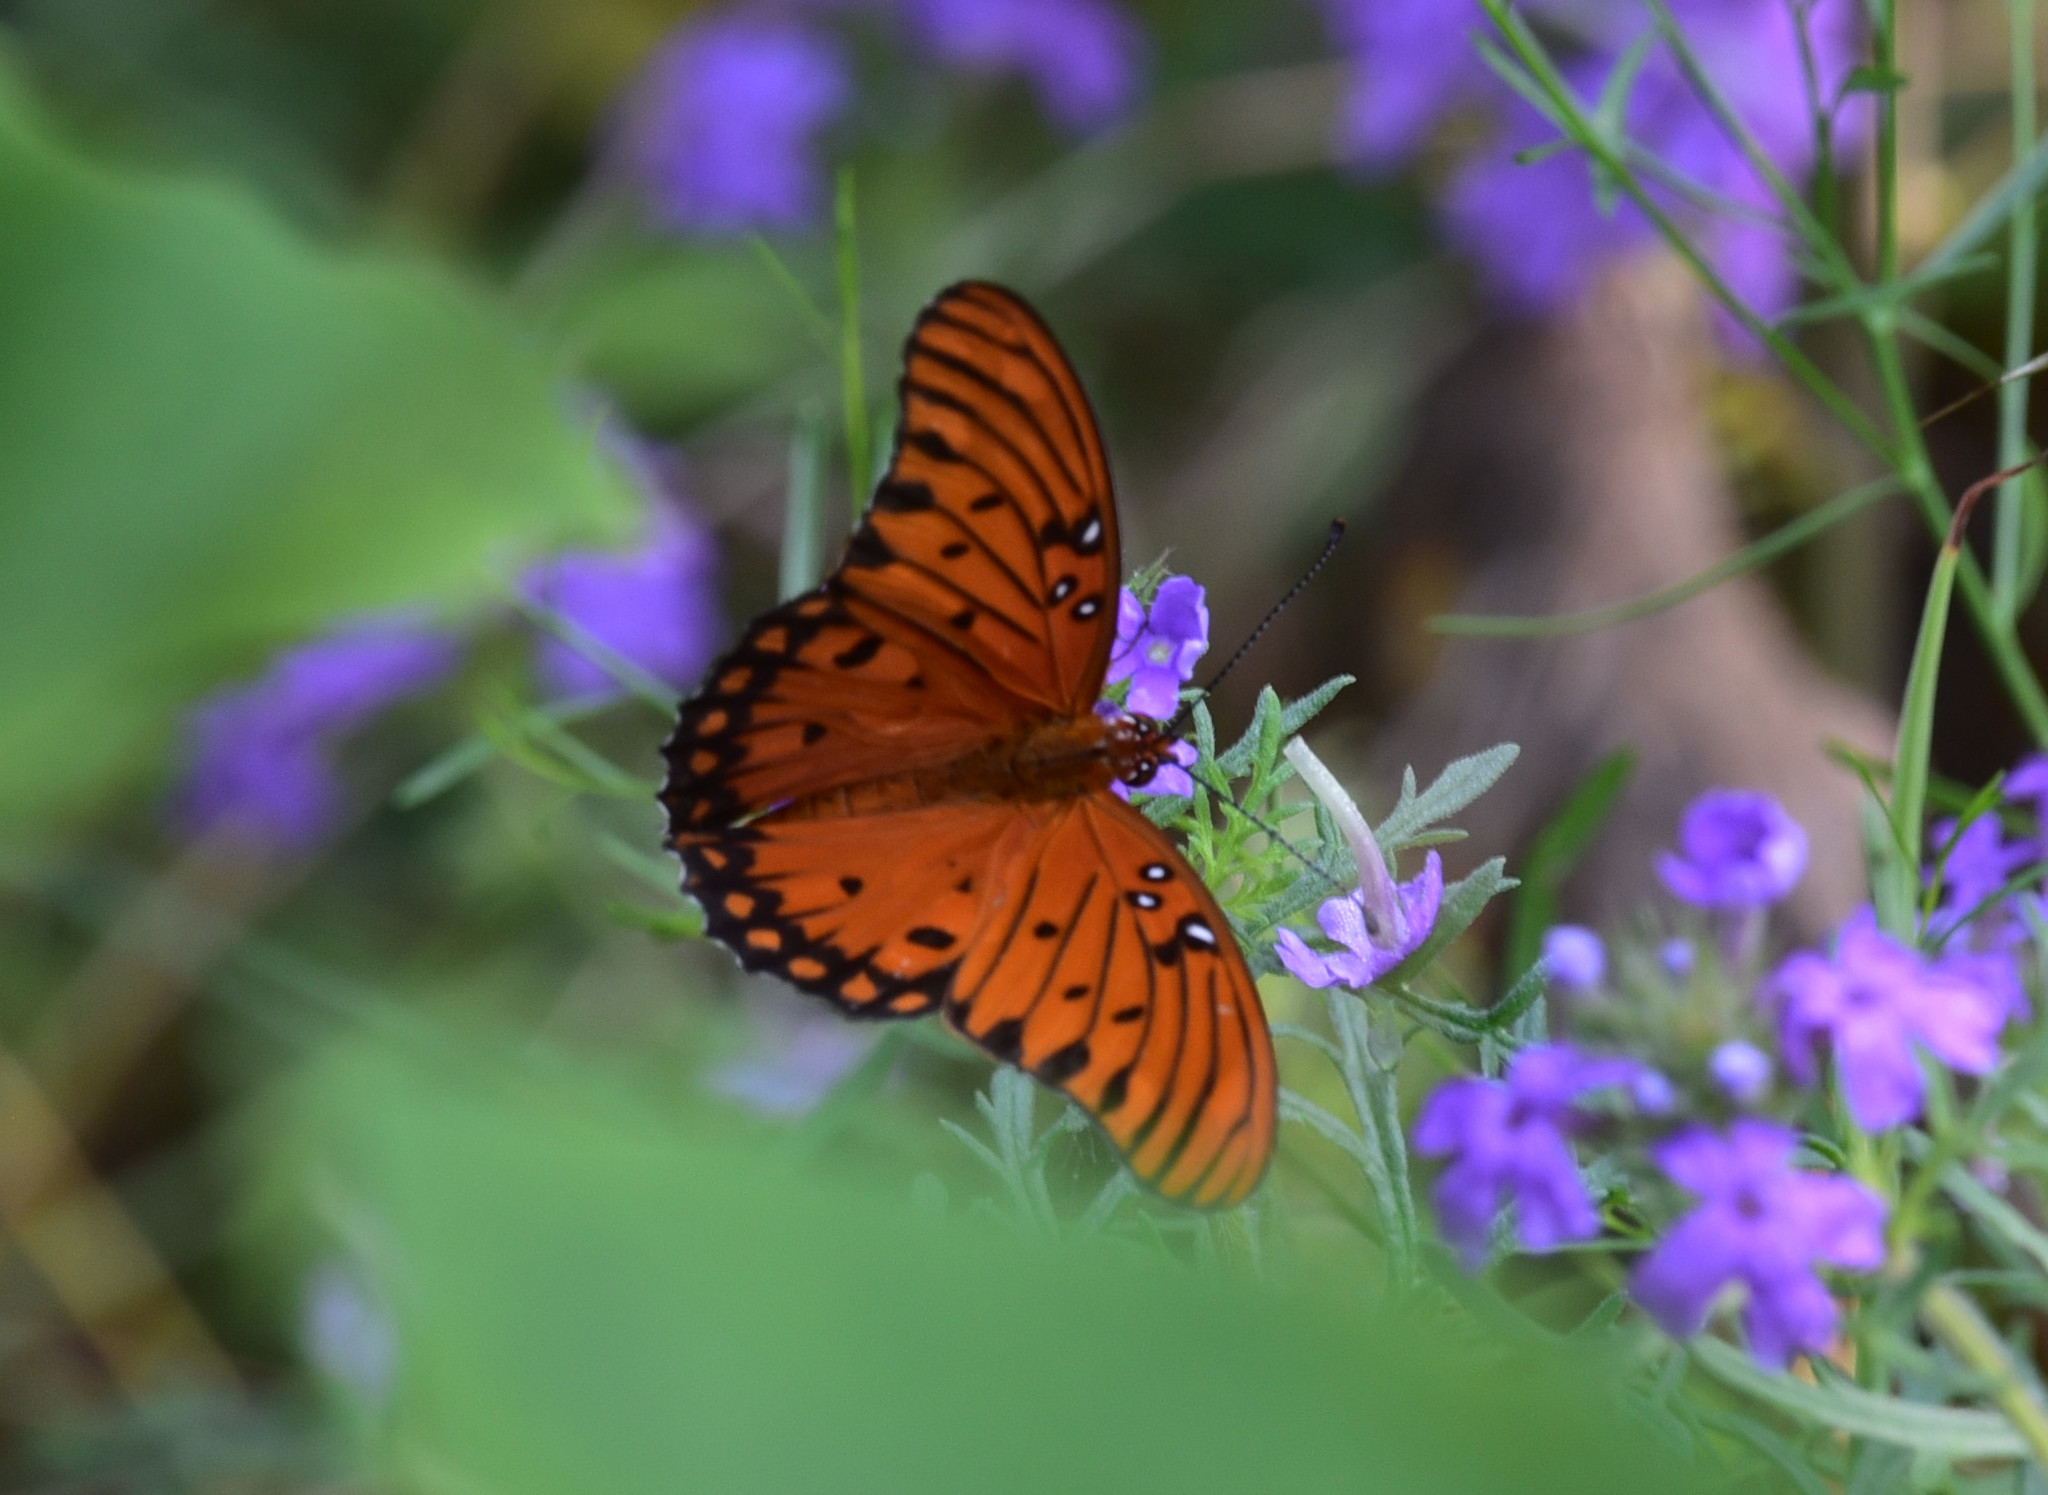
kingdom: Animalia
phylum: Arthropoda
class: Insecta
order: Lepidoptera
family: Nymphalidae
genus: Dione
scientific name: Dione vanillae
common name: Gulf fritillary
